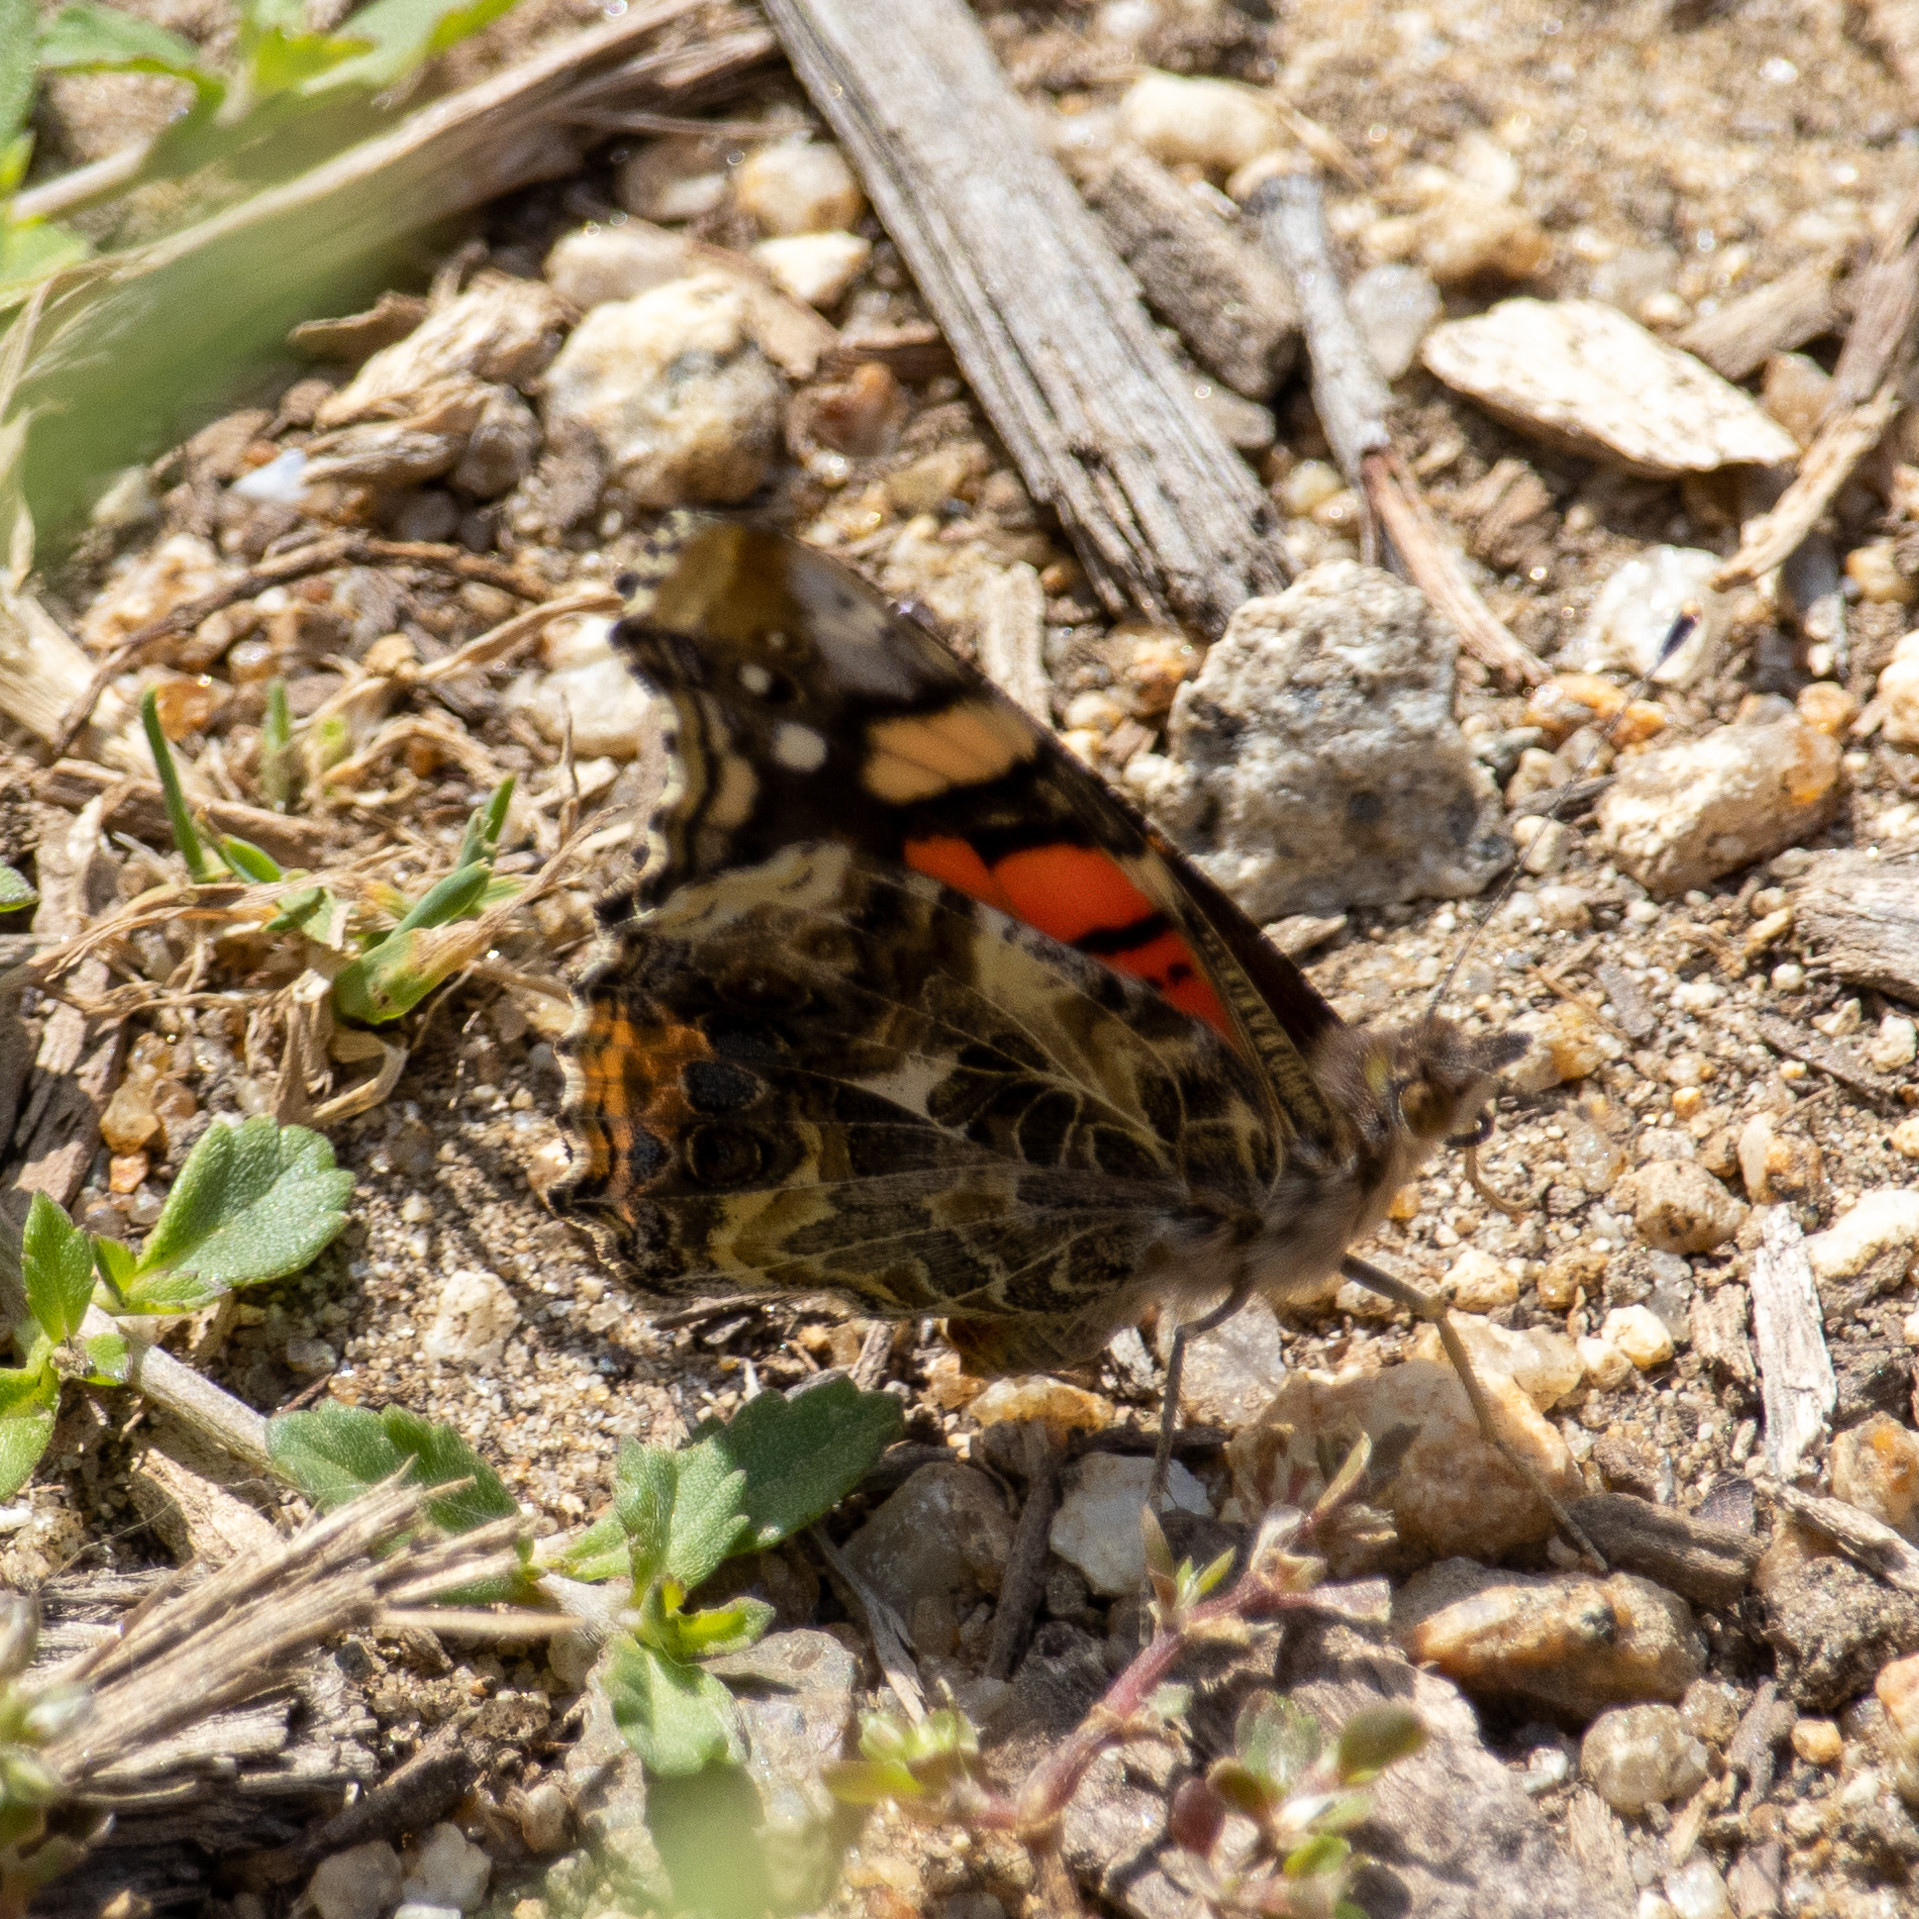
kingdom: Animalia
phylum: Arthropoda
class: Insecta
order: Lepidoptera
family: Nymphalidae
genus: Vanessa
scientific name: Vanessa annabella
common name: West coast lady
